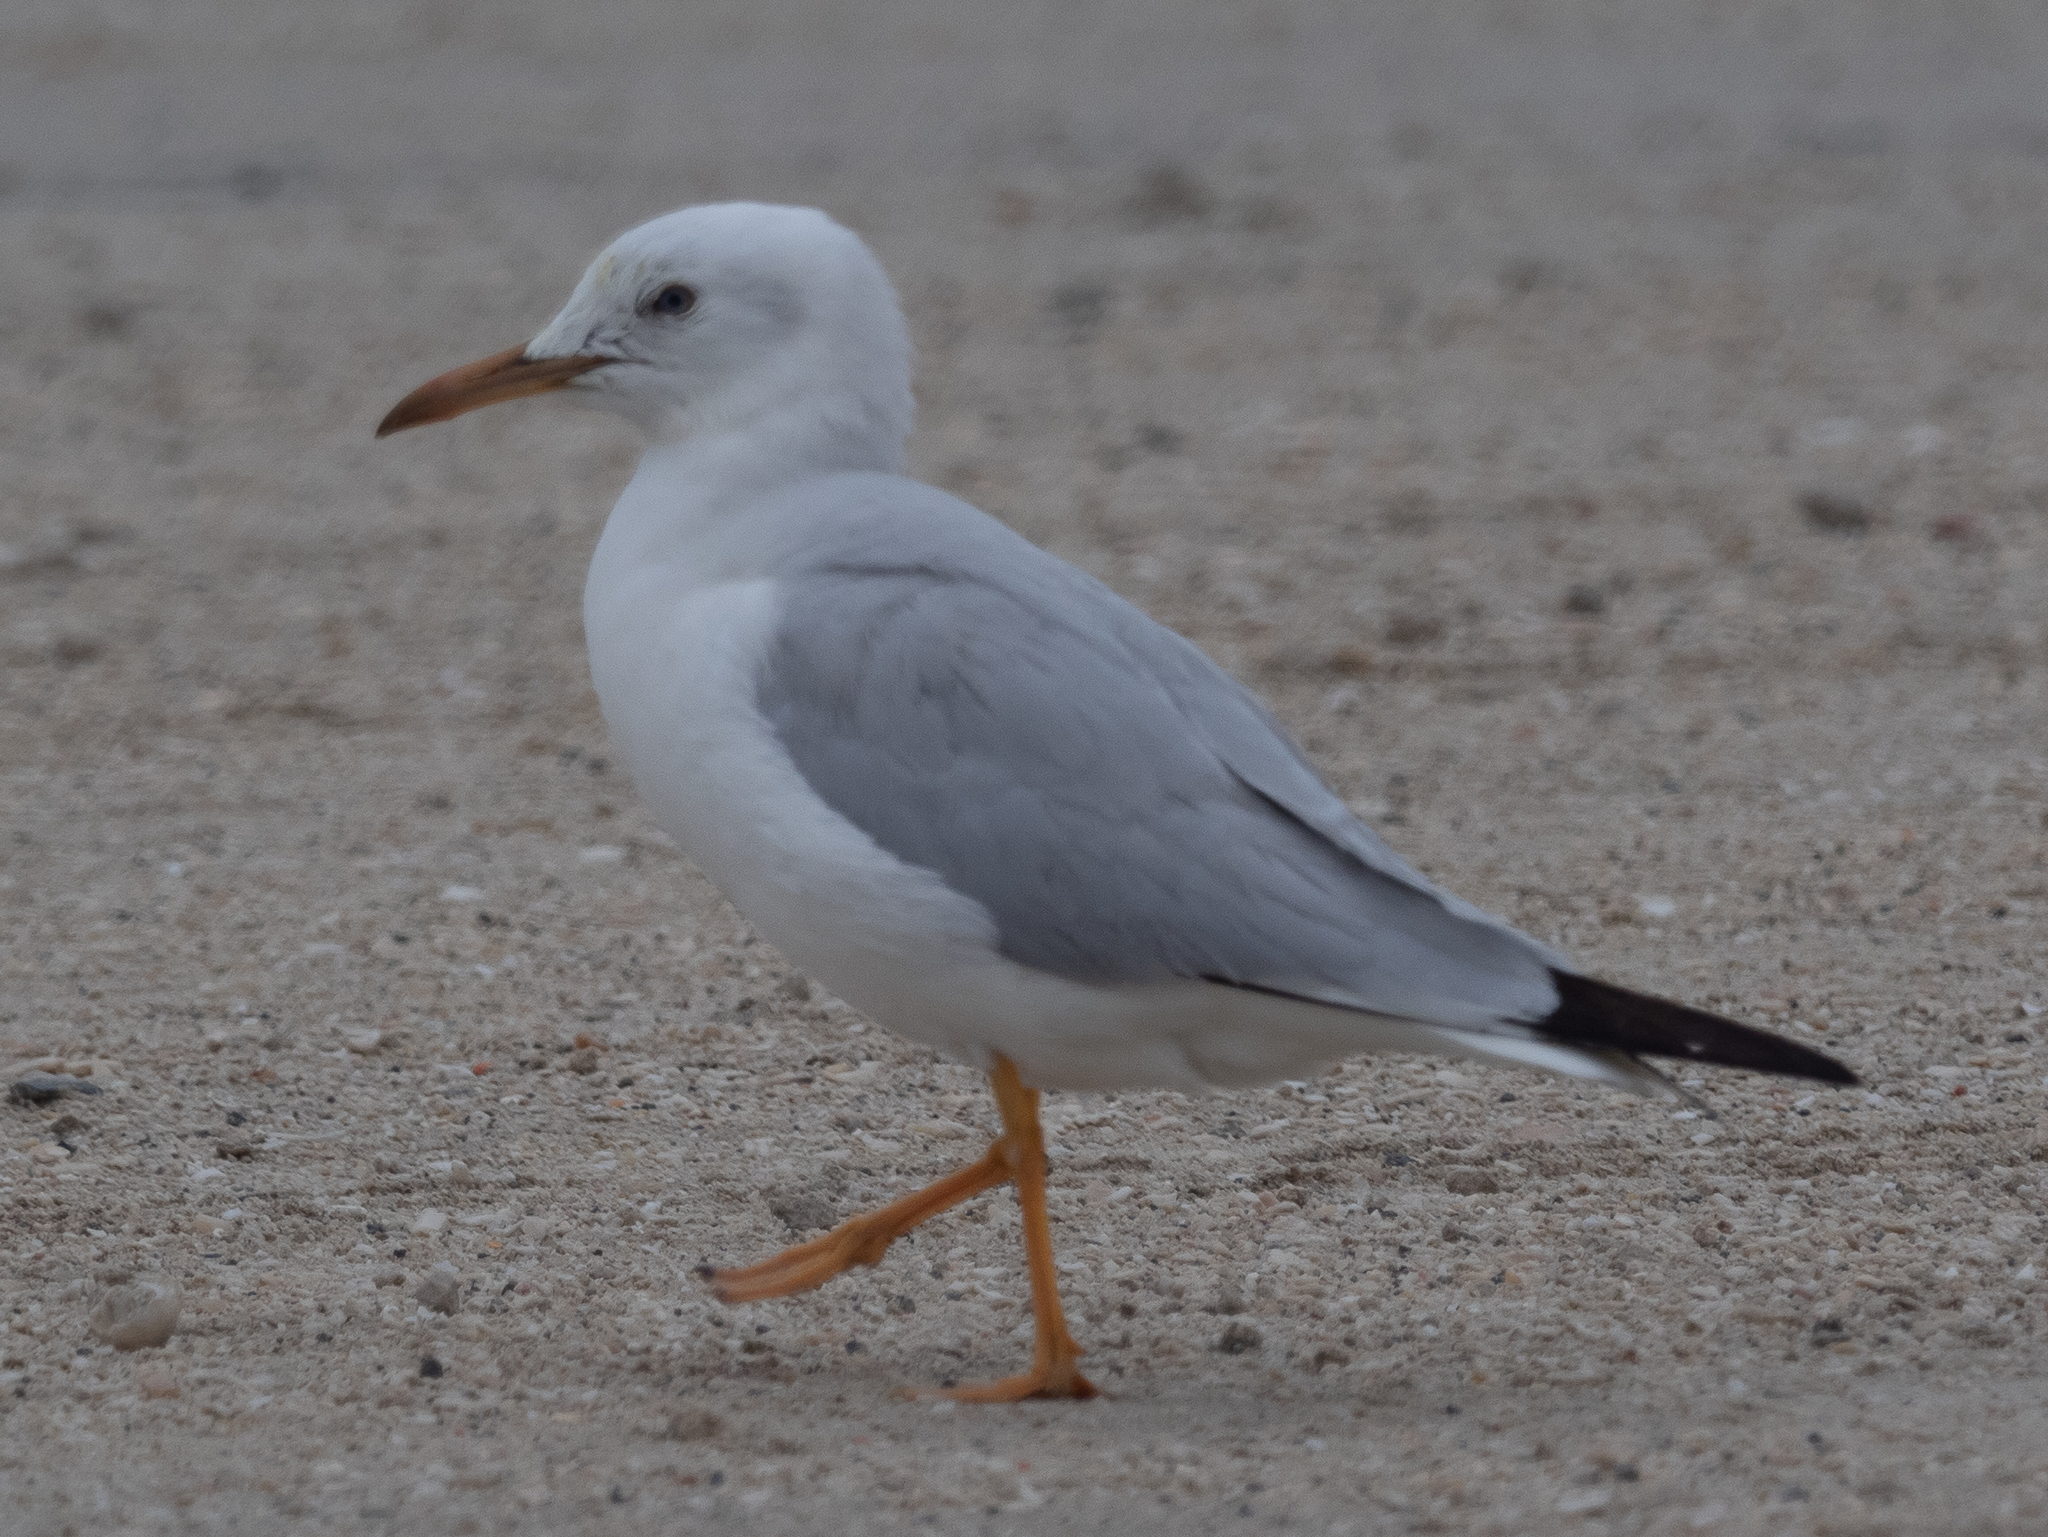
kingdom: Animalia
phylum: Chordata
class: Aves
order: Charadriiformes
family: Laridae
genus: Chroicocephalus
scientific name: Chroicocephalus genei
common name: Slender-billed gull
